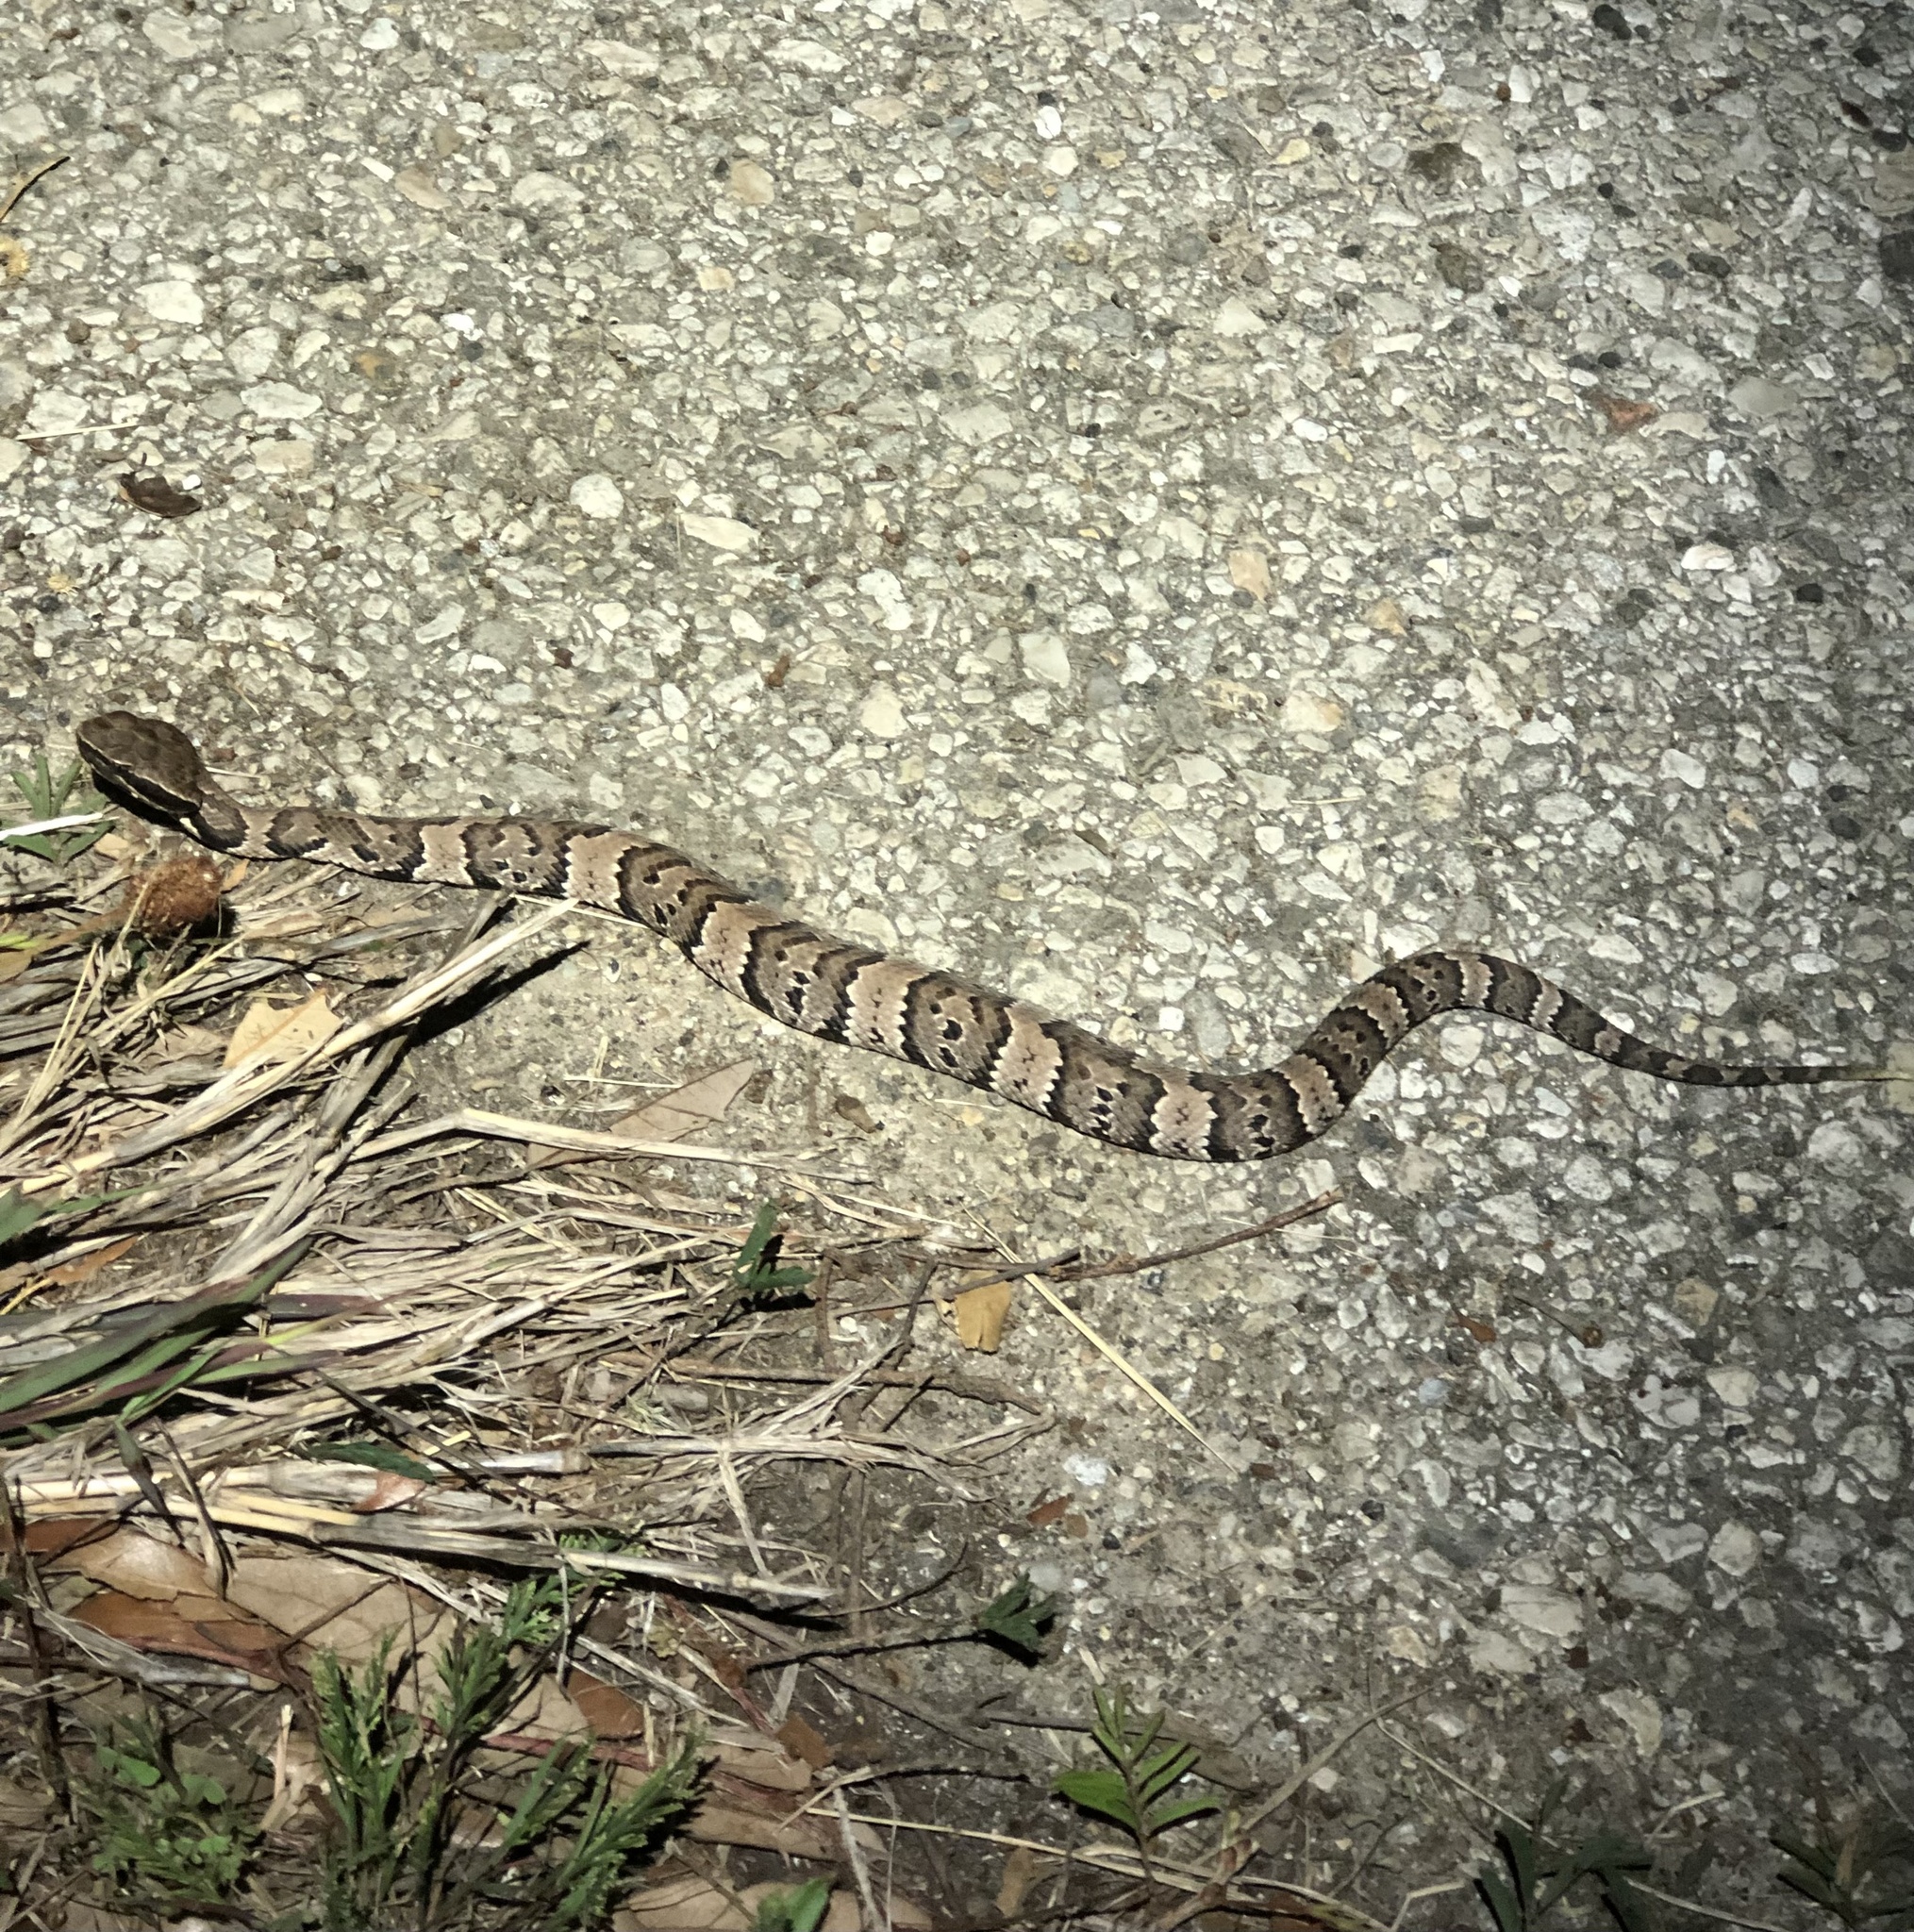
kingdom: Animalia
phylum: Chordata
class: Squamata
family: Viperidae
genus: Agkistrodon
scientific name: Agkistrodon piscivorus
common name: Cottonmouth
